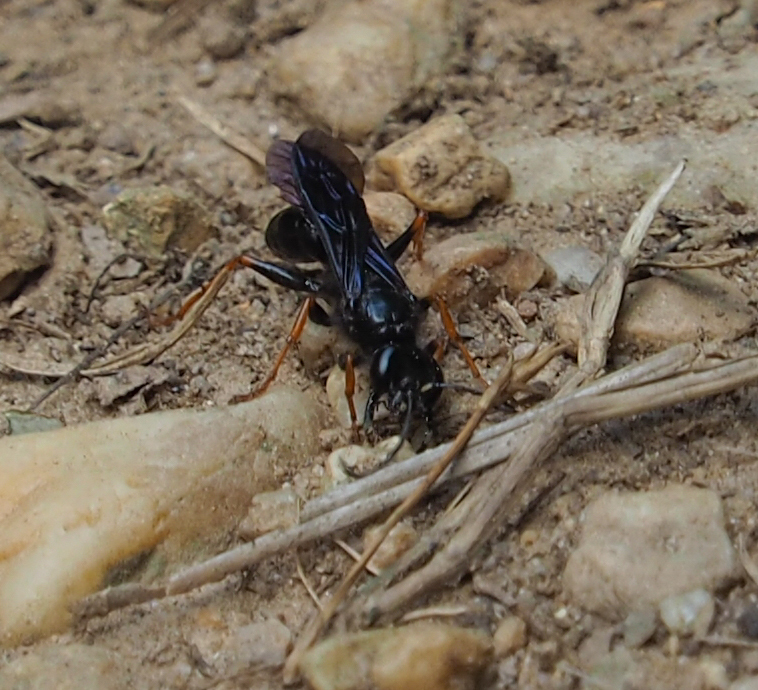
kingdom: Animalia
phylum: Arthropoda
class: Insecta
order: Hymenoptera
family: Sphecidae
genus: Podium
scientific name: Podium luctuosum
